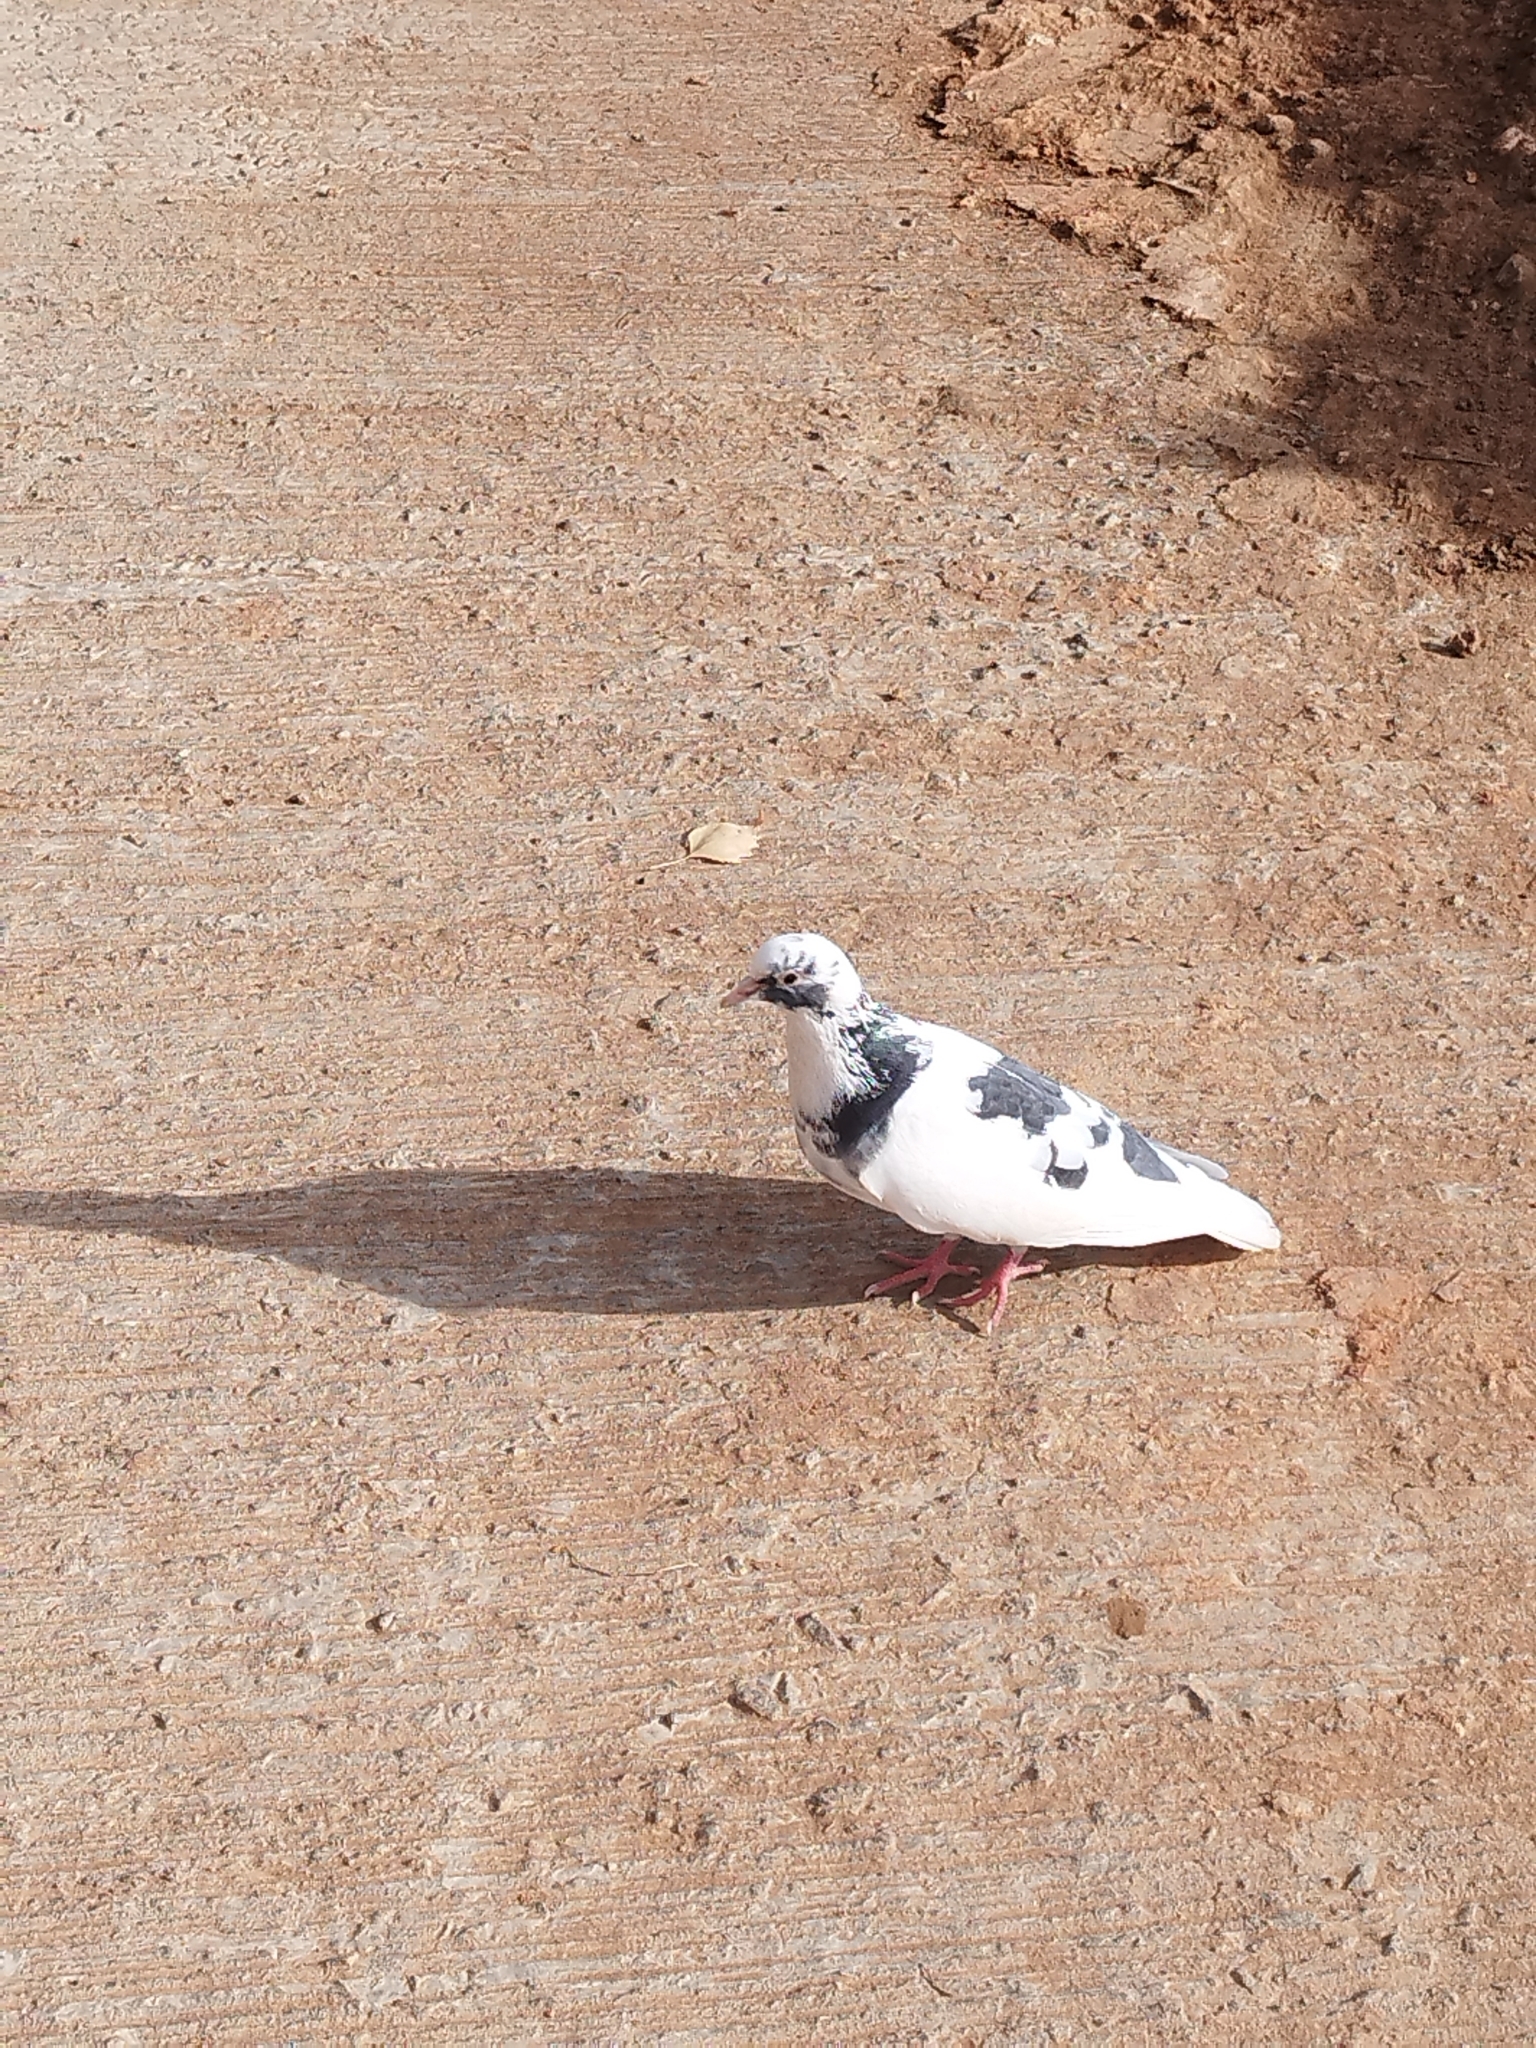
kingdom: Animalia
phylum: Chordata
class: Aves
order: Columbiformes
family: Columbidae
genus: Columba
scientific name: Columba livia
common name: Rock pigeon
